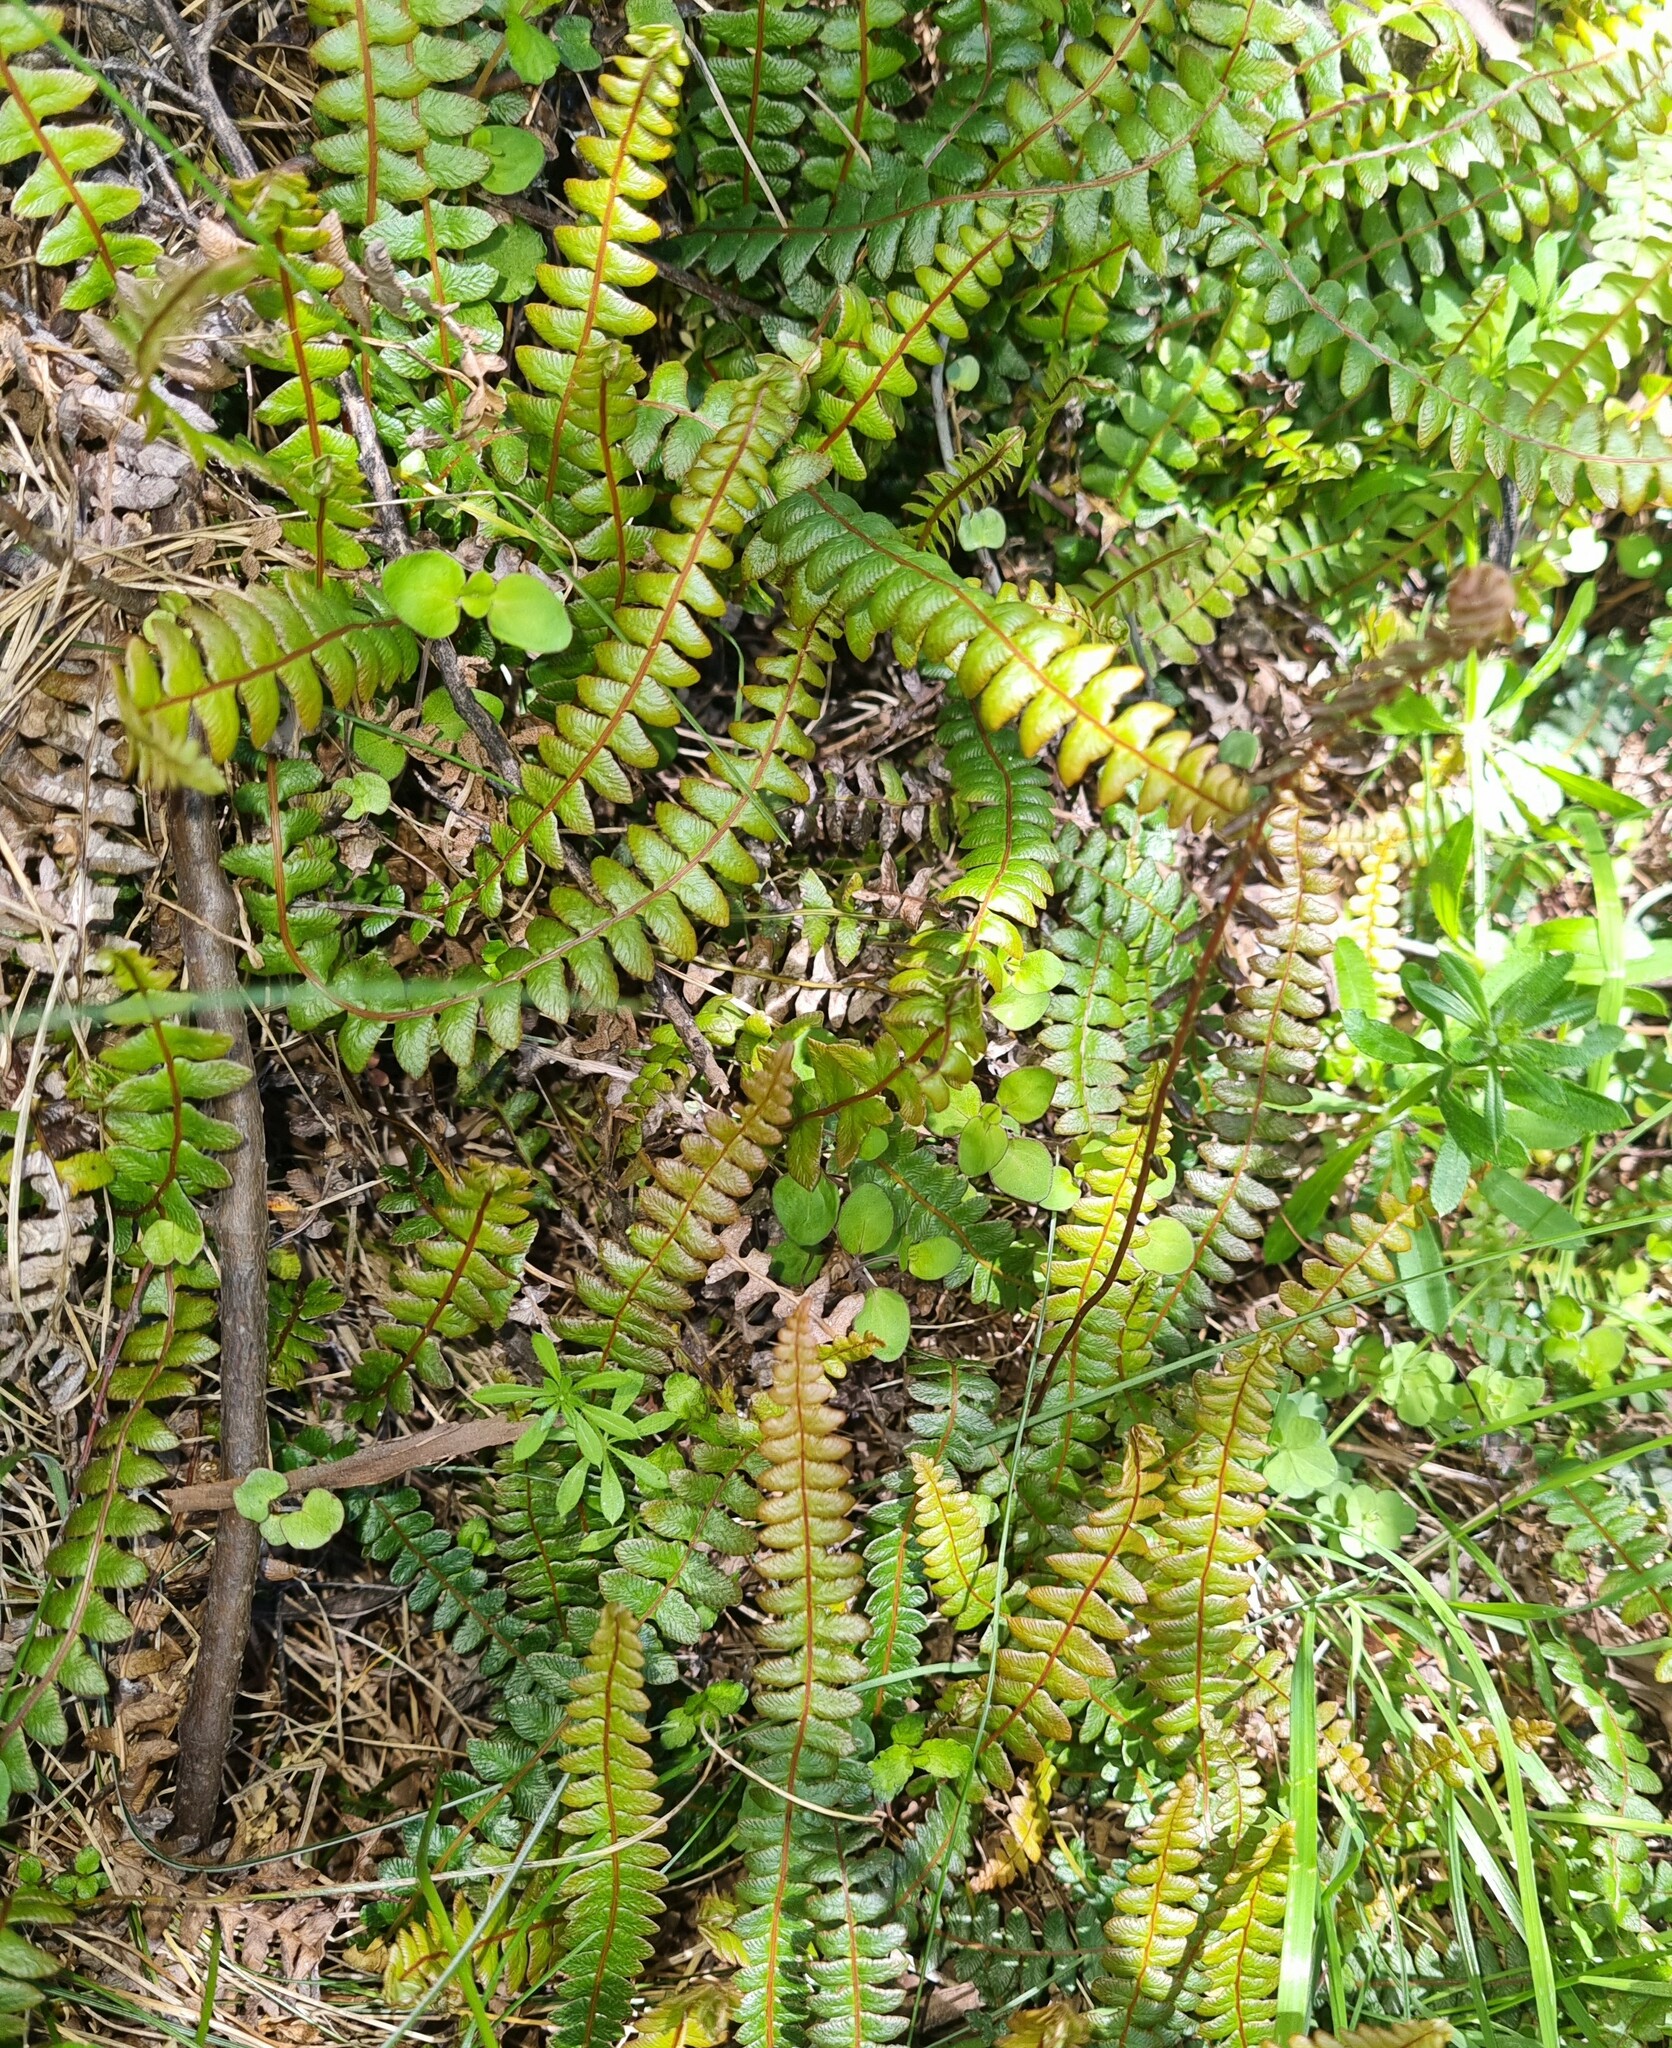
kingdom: Plantae
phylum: Tracheophyta
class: Polypodiopsida
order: Polypodiales
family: Blechnaceae
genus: Austroblechnum
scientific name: Austroblechnum penna-marina
